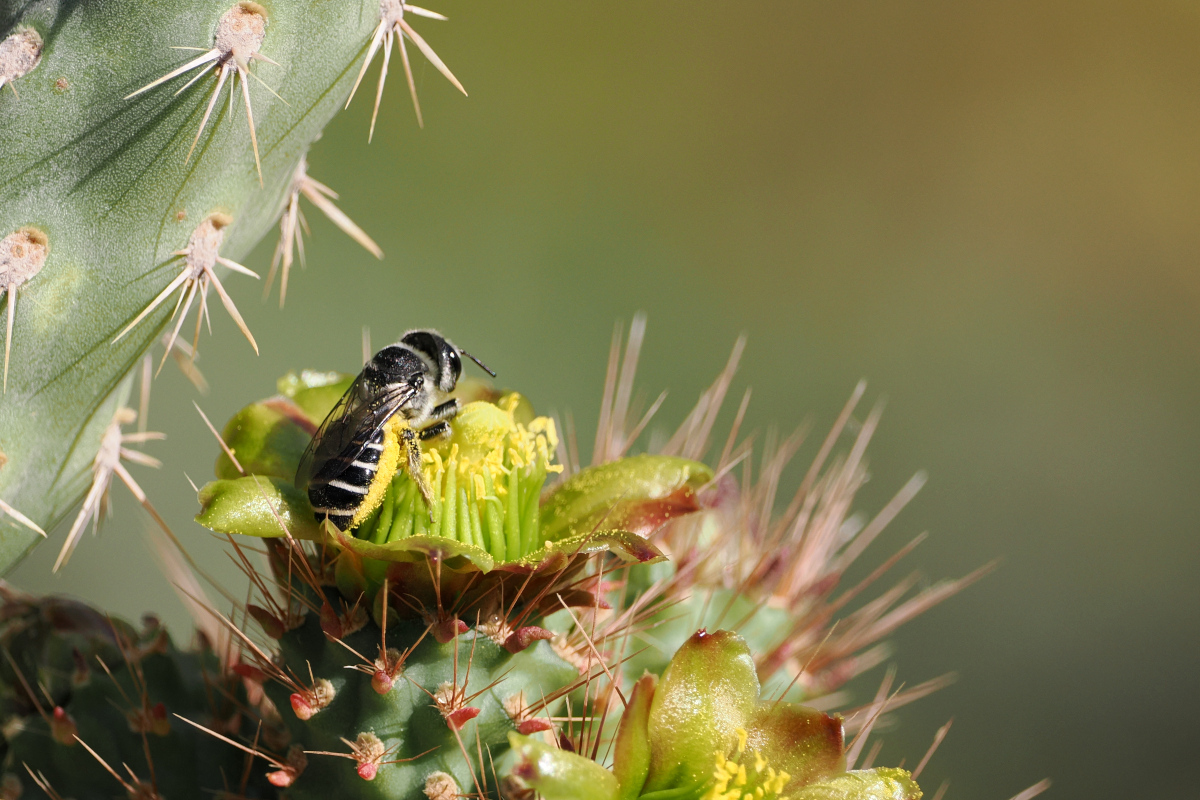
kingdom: Animalia
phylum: Arthropoda
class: Insecta
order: Hymenoptera
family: Megachilidae
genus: Lithurgopsis
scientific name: Lithurgopsis apicalis
